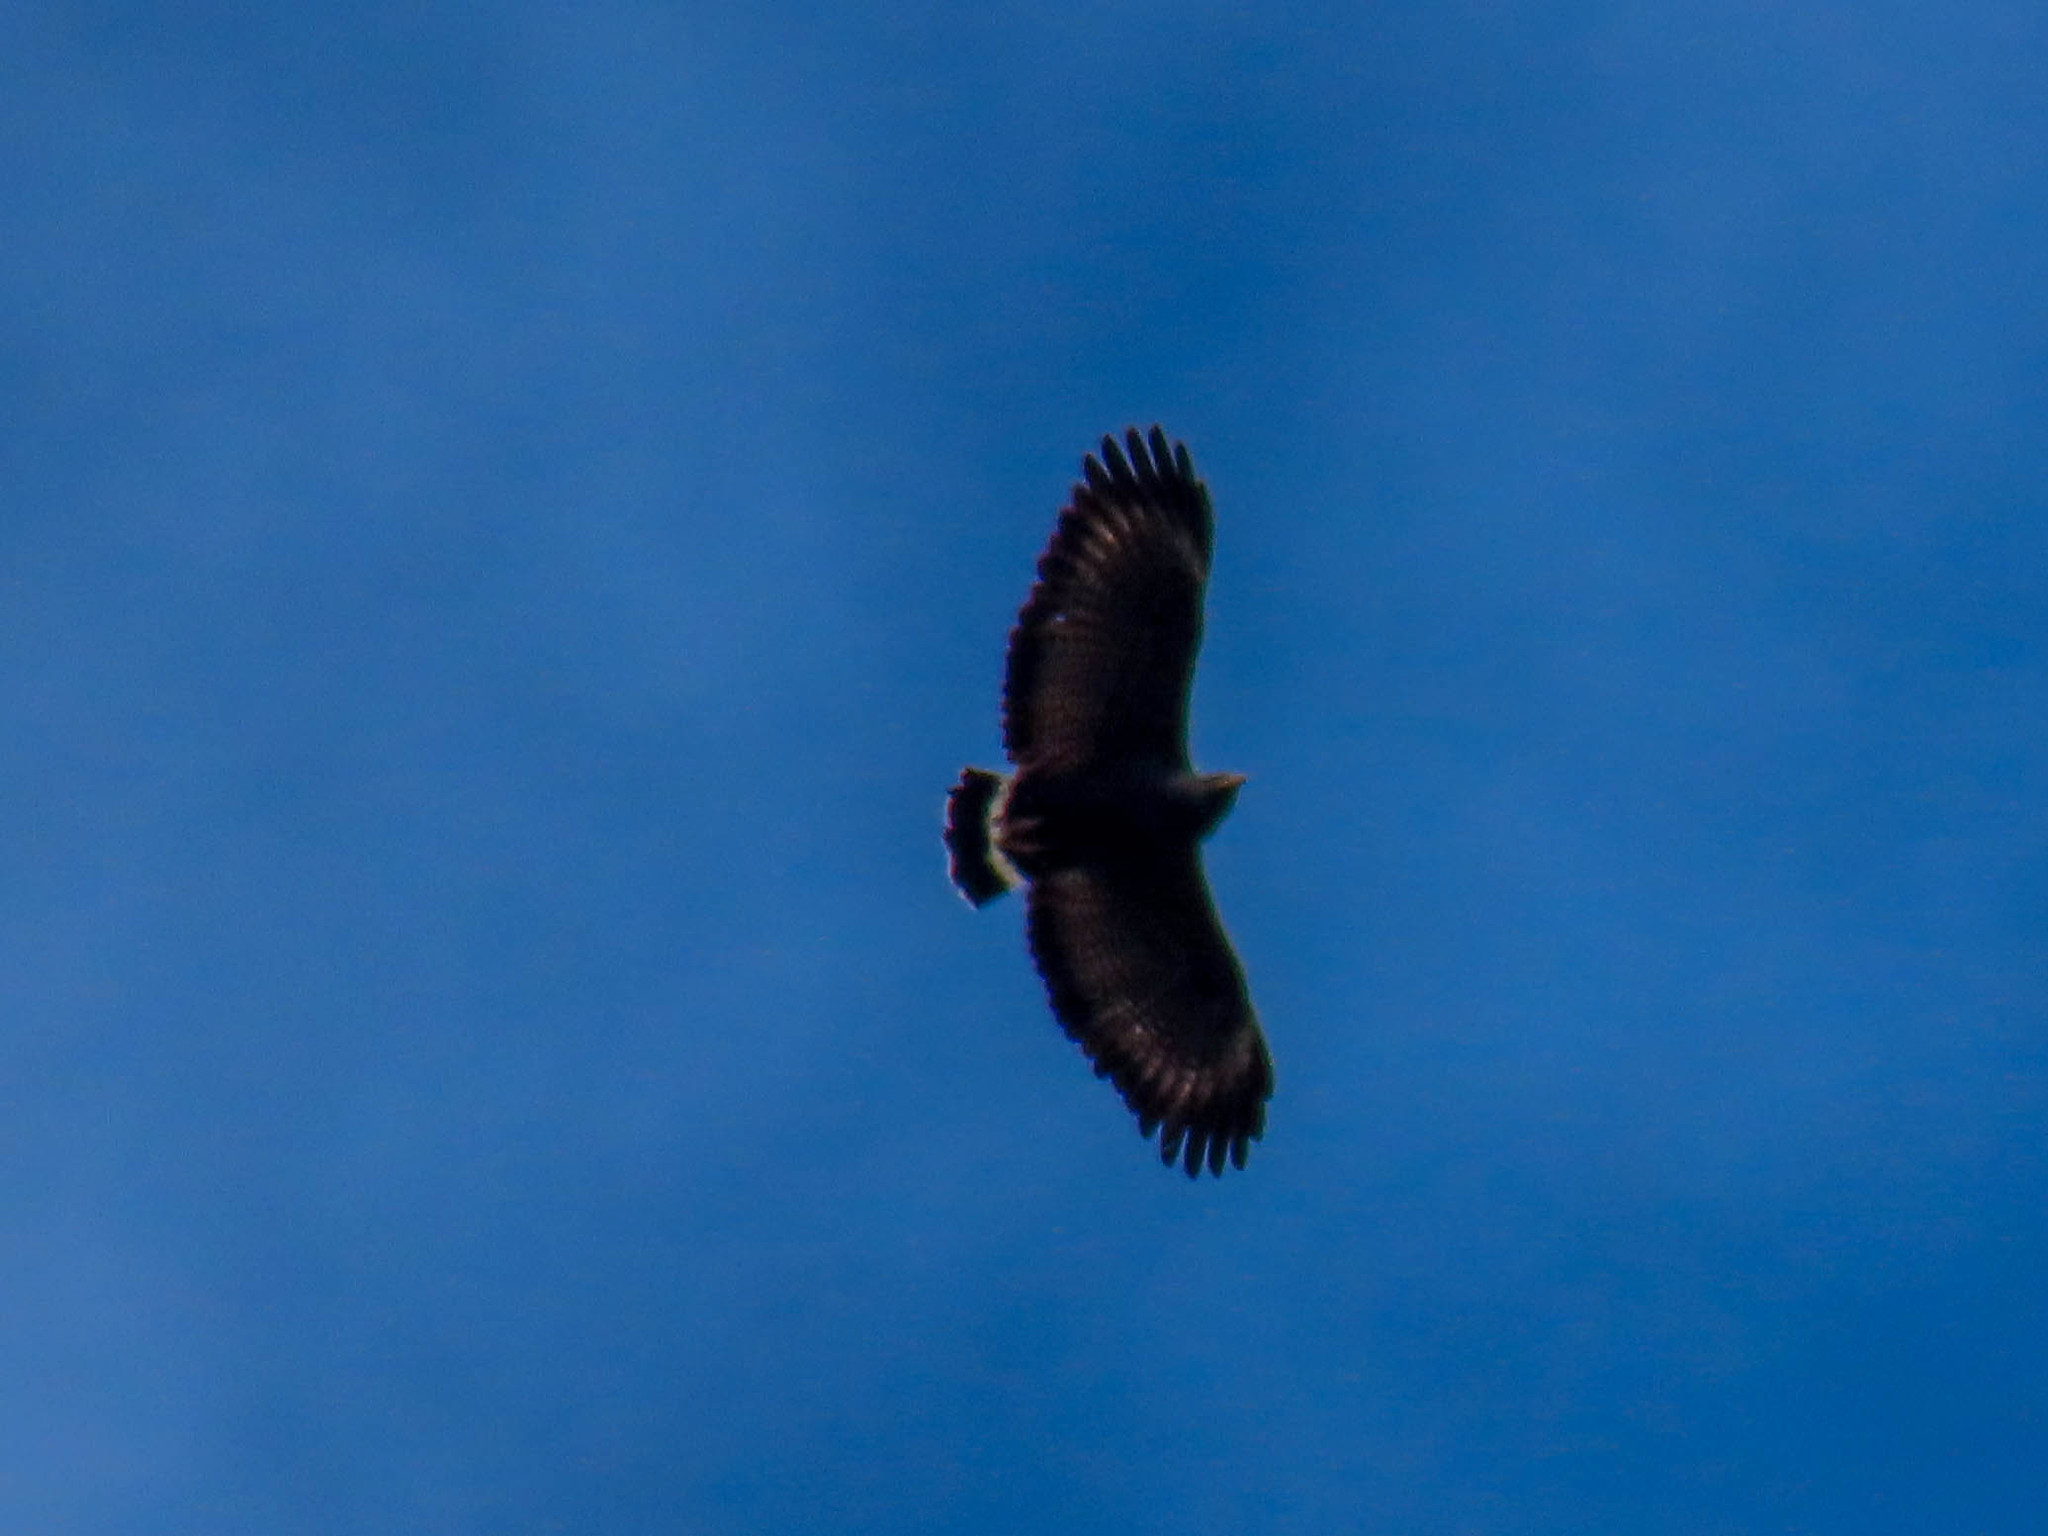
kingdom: Animalia
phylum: Chordata
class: Aves
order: Accipitriformes
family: Accipitridae
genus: Buteogallus
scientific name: Buteogallus anthracinus
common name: Common black hawk
